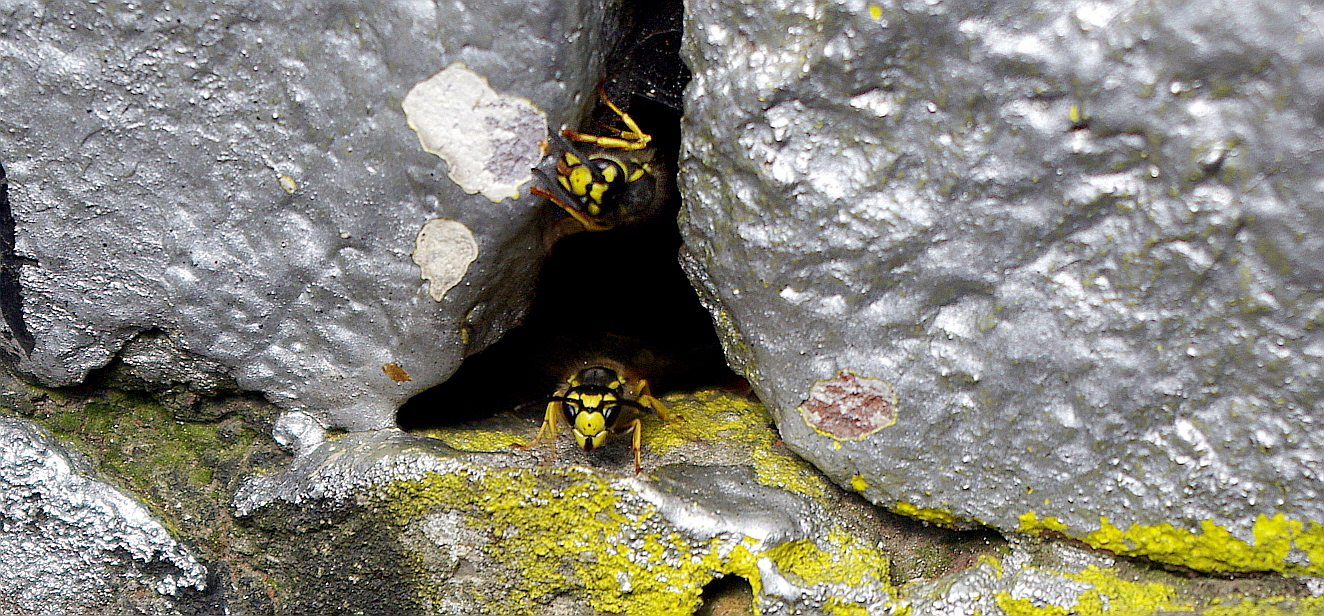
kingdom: Animalia
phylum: Arthropoda
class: Insecta
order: Hymenoptera
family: Vespidae
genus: Vespula
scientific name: Vespula germanica
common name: German wasp
